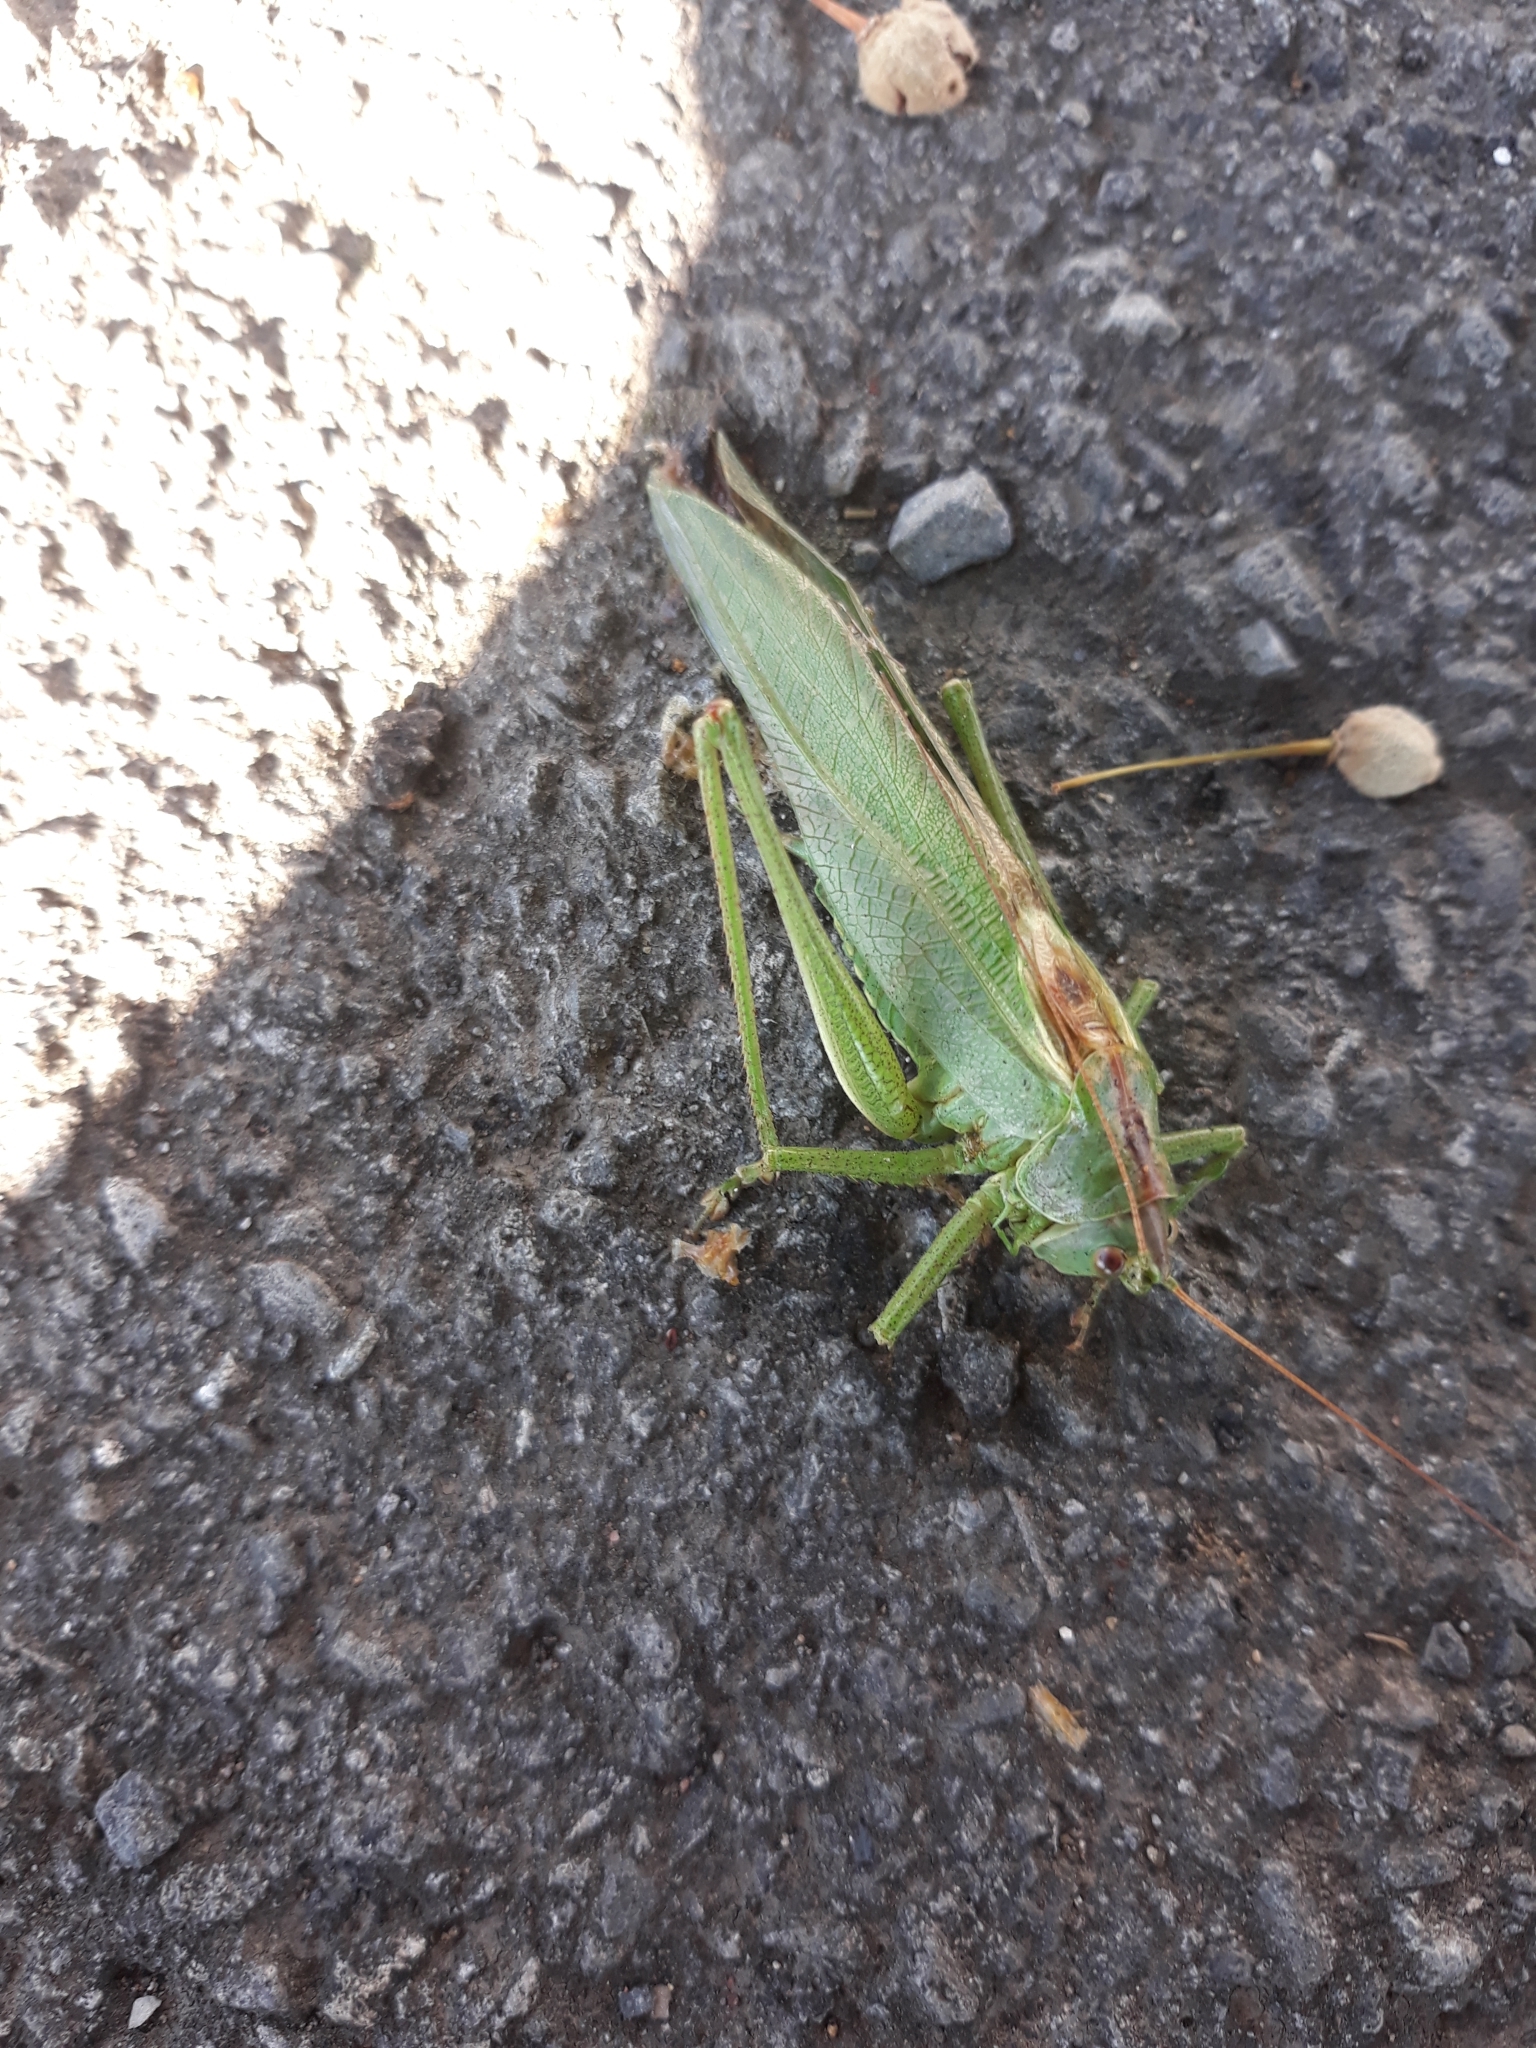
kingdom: Animalia
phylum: Arthropoda
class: Insecta
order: Orthoptera
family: Tettigoniidae
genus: Tettigonia
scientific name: Tettigonia viridissima
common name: Great green bush-cricket
